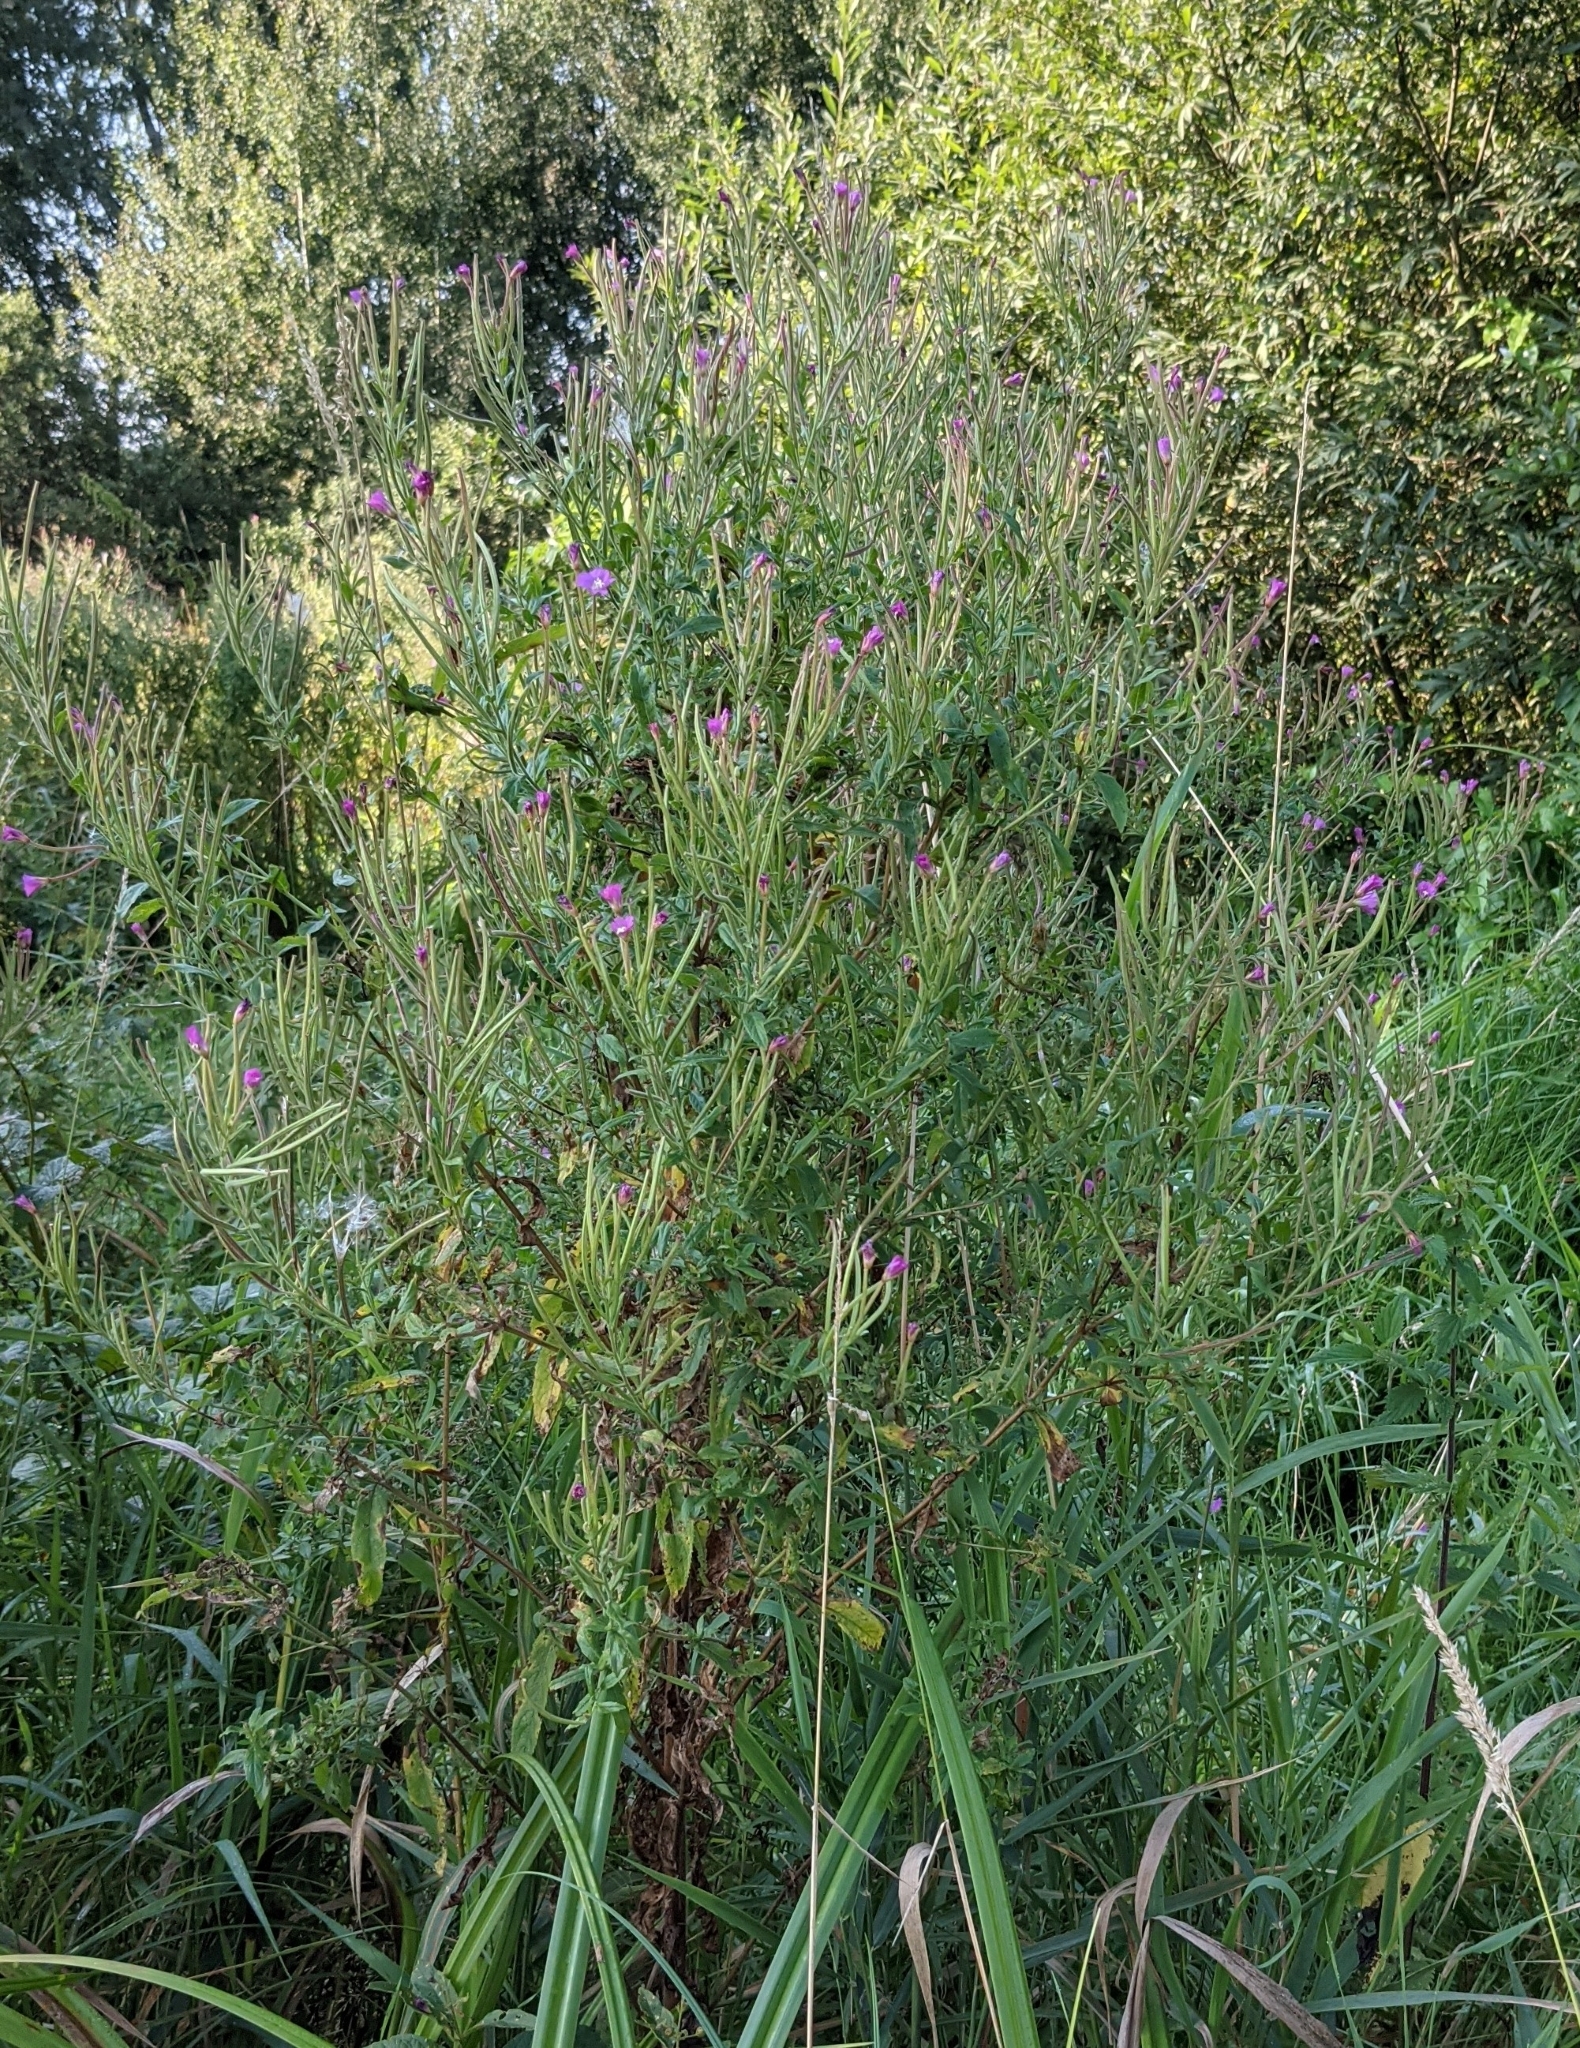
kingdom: Plantae
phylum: Tracheophyta
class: Magnoliopsida
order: Myrtales
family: Onagraceae
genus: Epilobium
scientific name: Epilobium hirsutum
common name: Great willowherb
